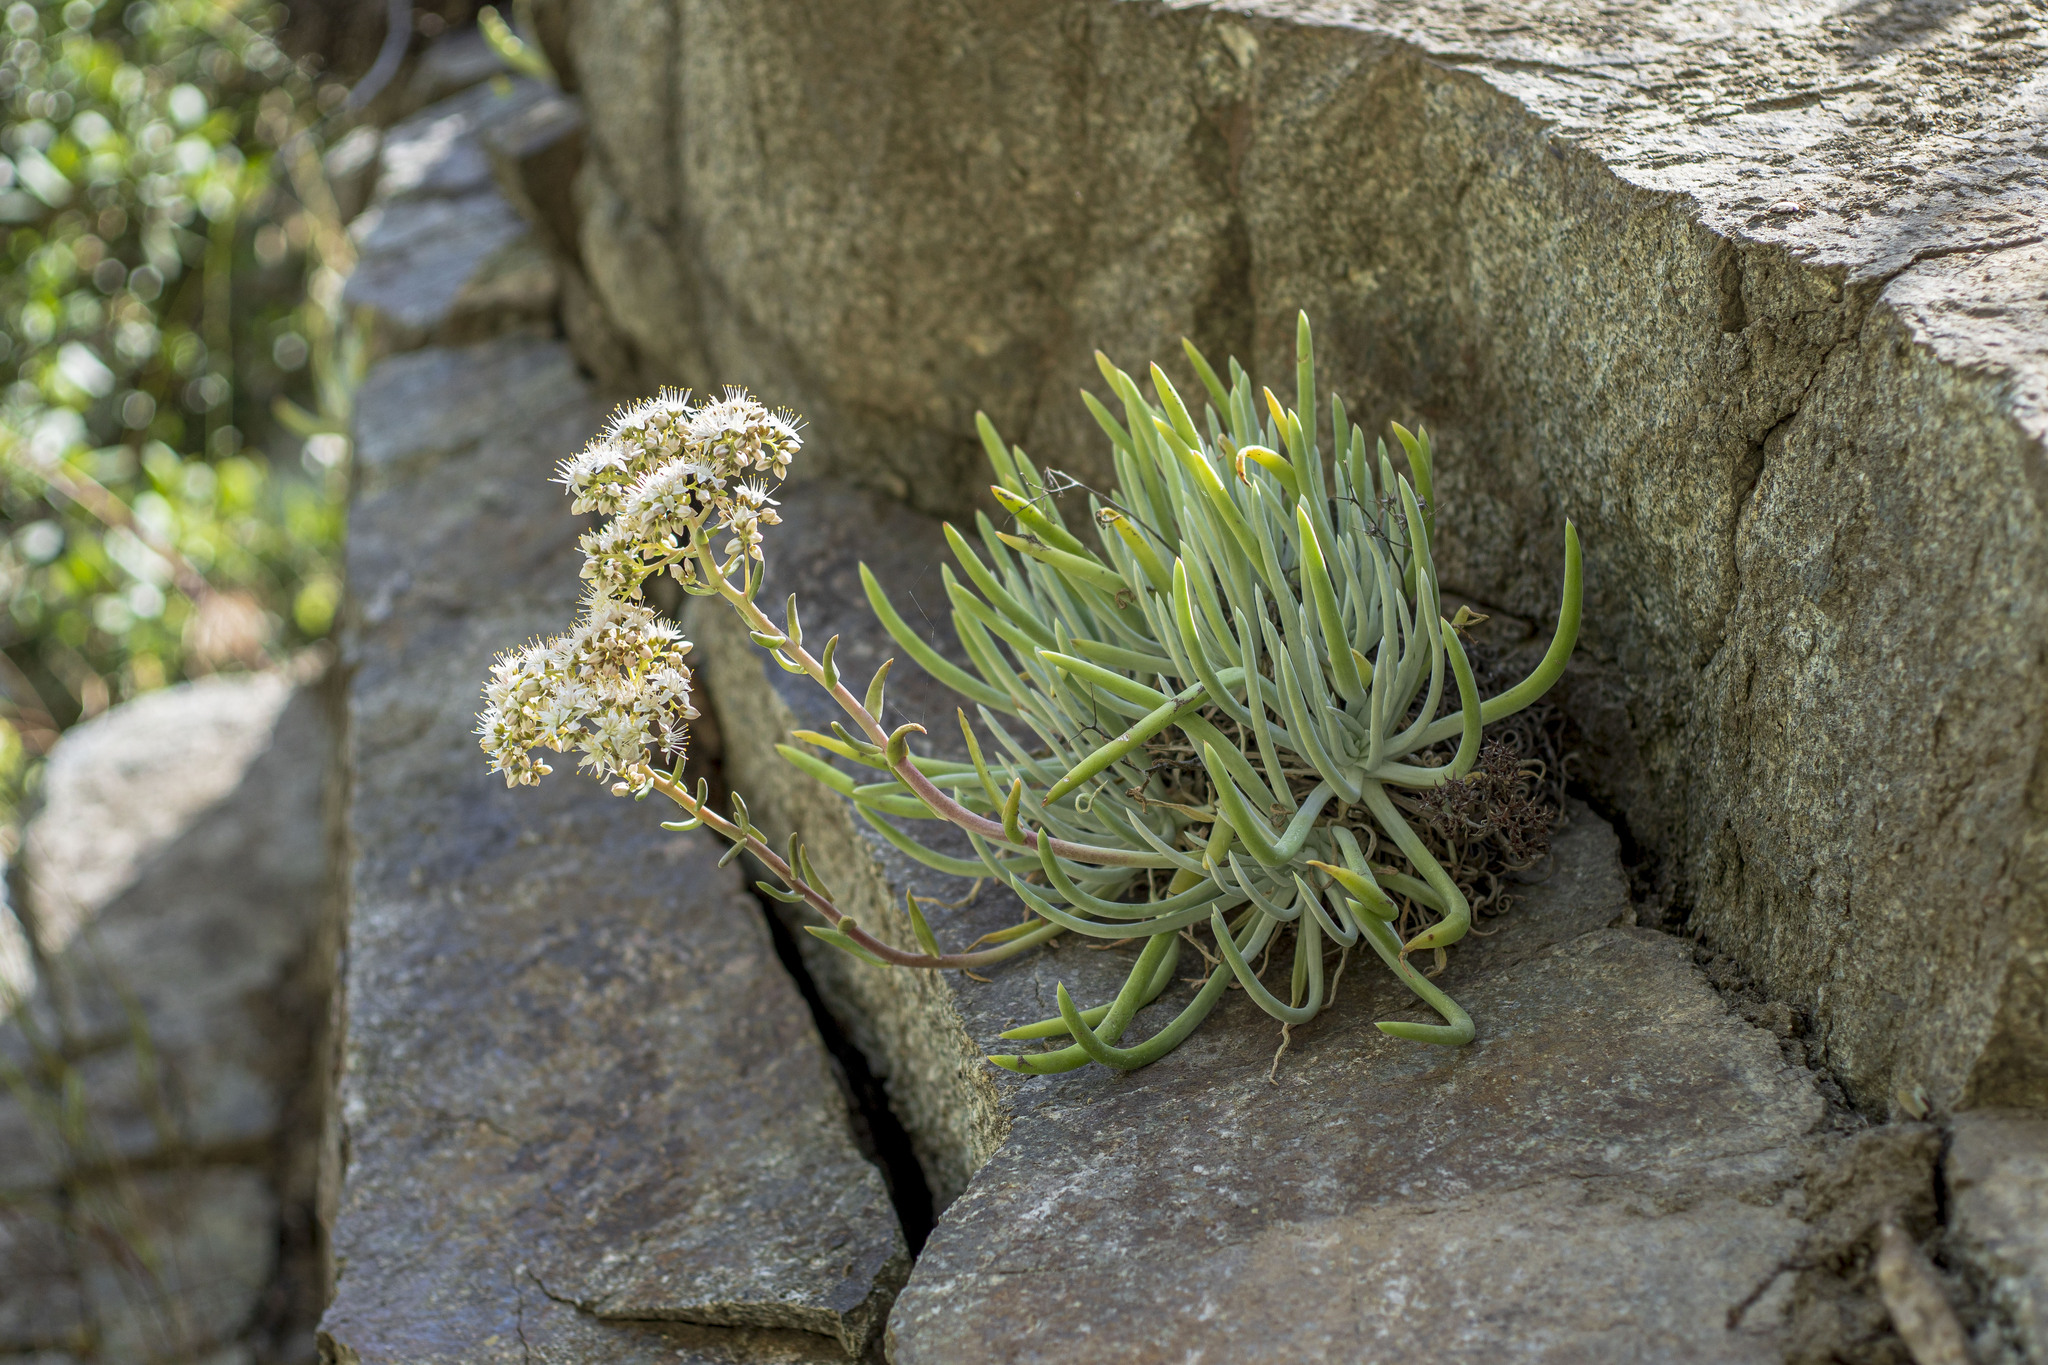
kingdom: Plantae
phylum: Tracheophyta
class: Magnoliopsida
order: Saxifragales
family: Crassulaceae
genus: Dudleya
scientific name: Dudleya densiflora
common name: San gabriel mountains dudleya
